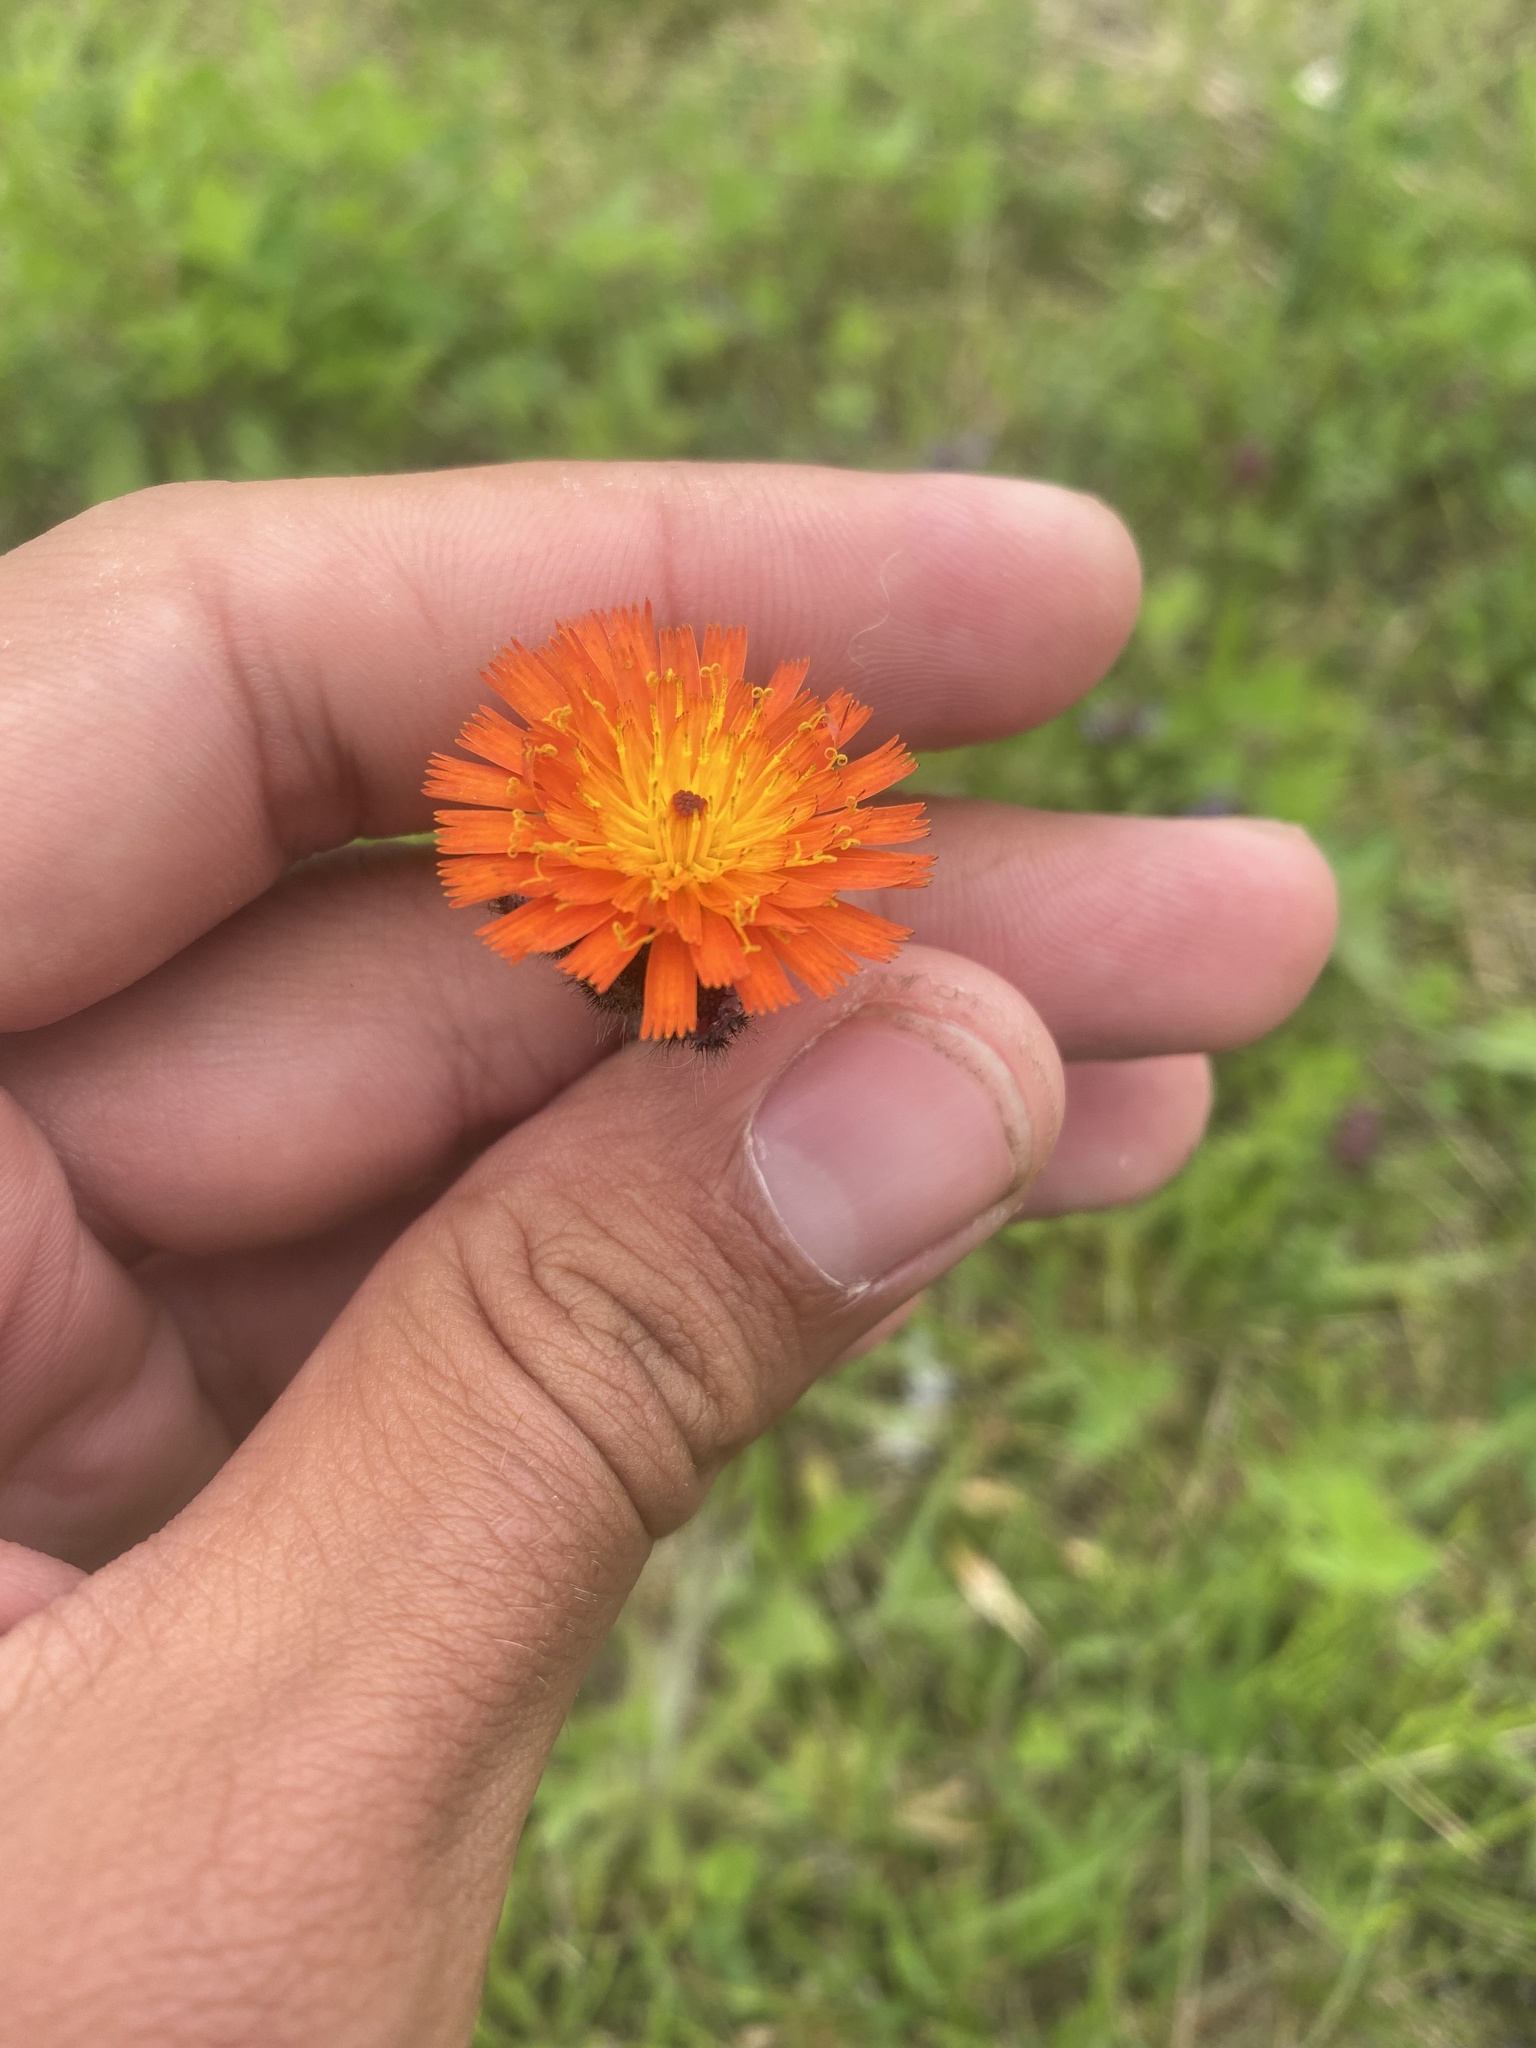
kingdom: Plantae
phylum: Tracheophyta
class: Magnoliopsida
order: Asterales
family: Asteraceae
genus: Pilosella
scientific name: Pilosella aurantiaca
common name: Fox-and-cubs
